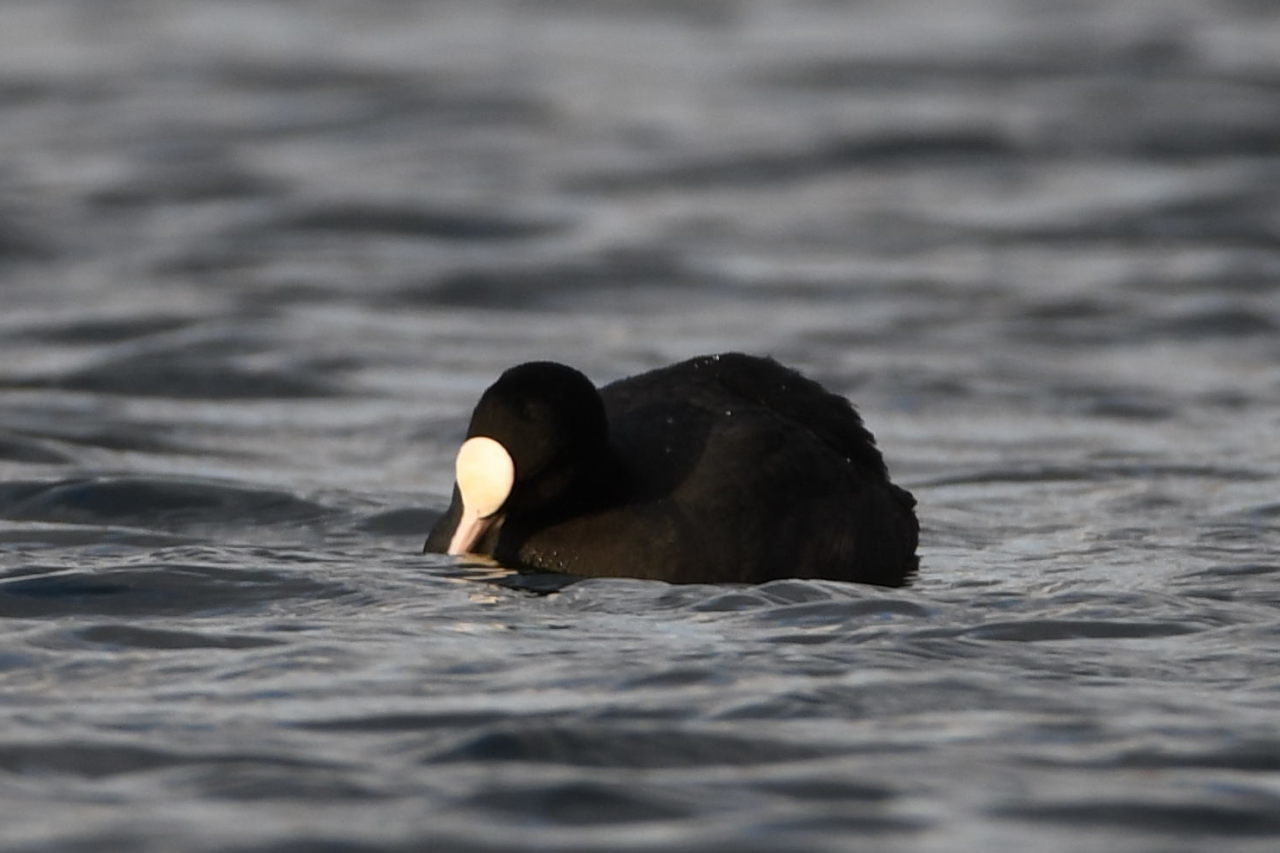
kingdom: Animalia
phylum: Chordata
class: Aves
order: Gruiformes
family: Rallidae
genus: Fulica
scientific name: Fulica atra
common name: Eurasian coot
